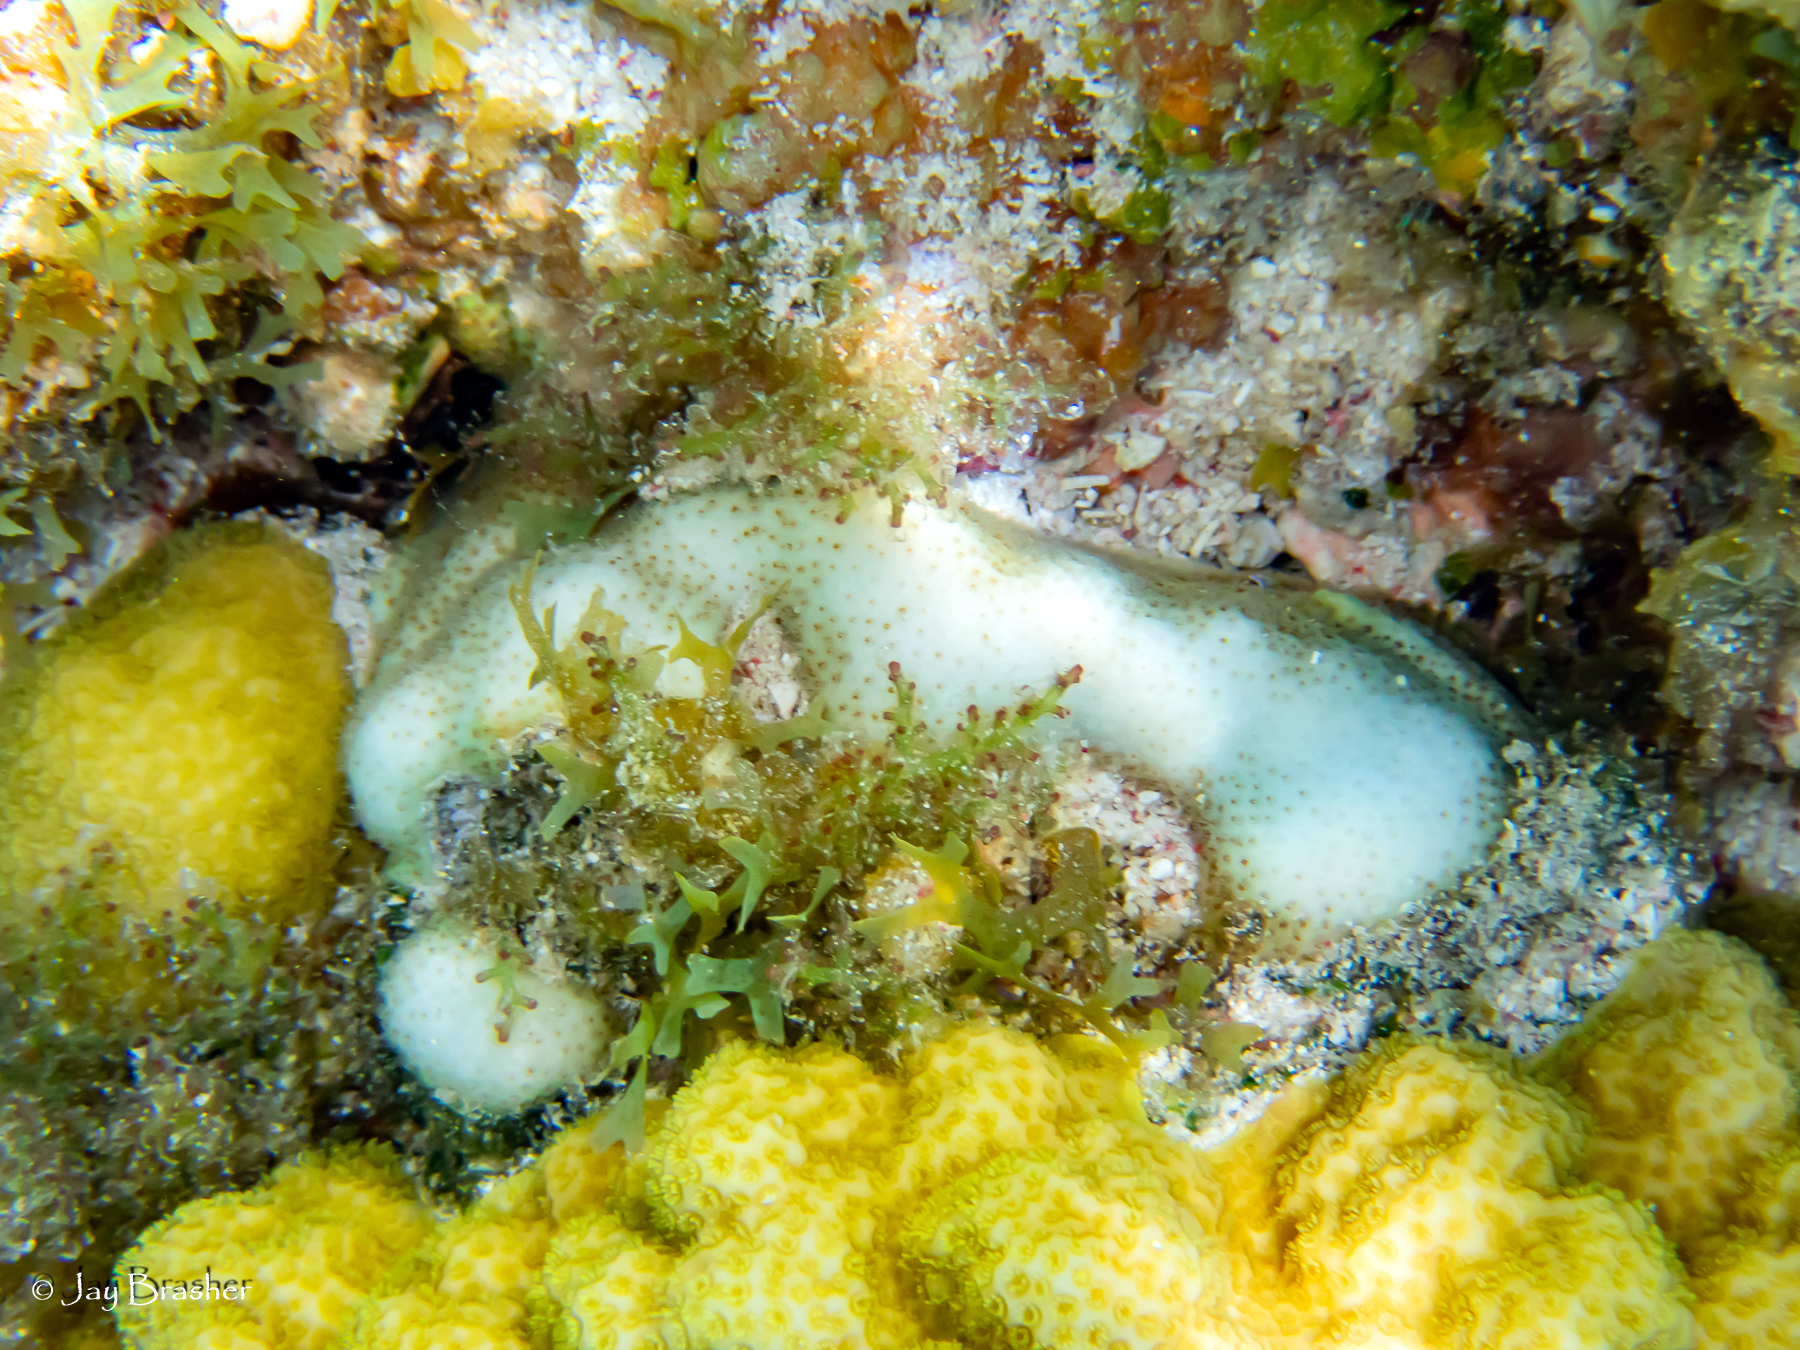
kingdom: Animalia
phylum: Cnidaria
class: Anthozoa
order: Scleractinia
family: Poritidae
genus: Porites
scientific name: Porites astreoides
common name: Mustard hill coral
